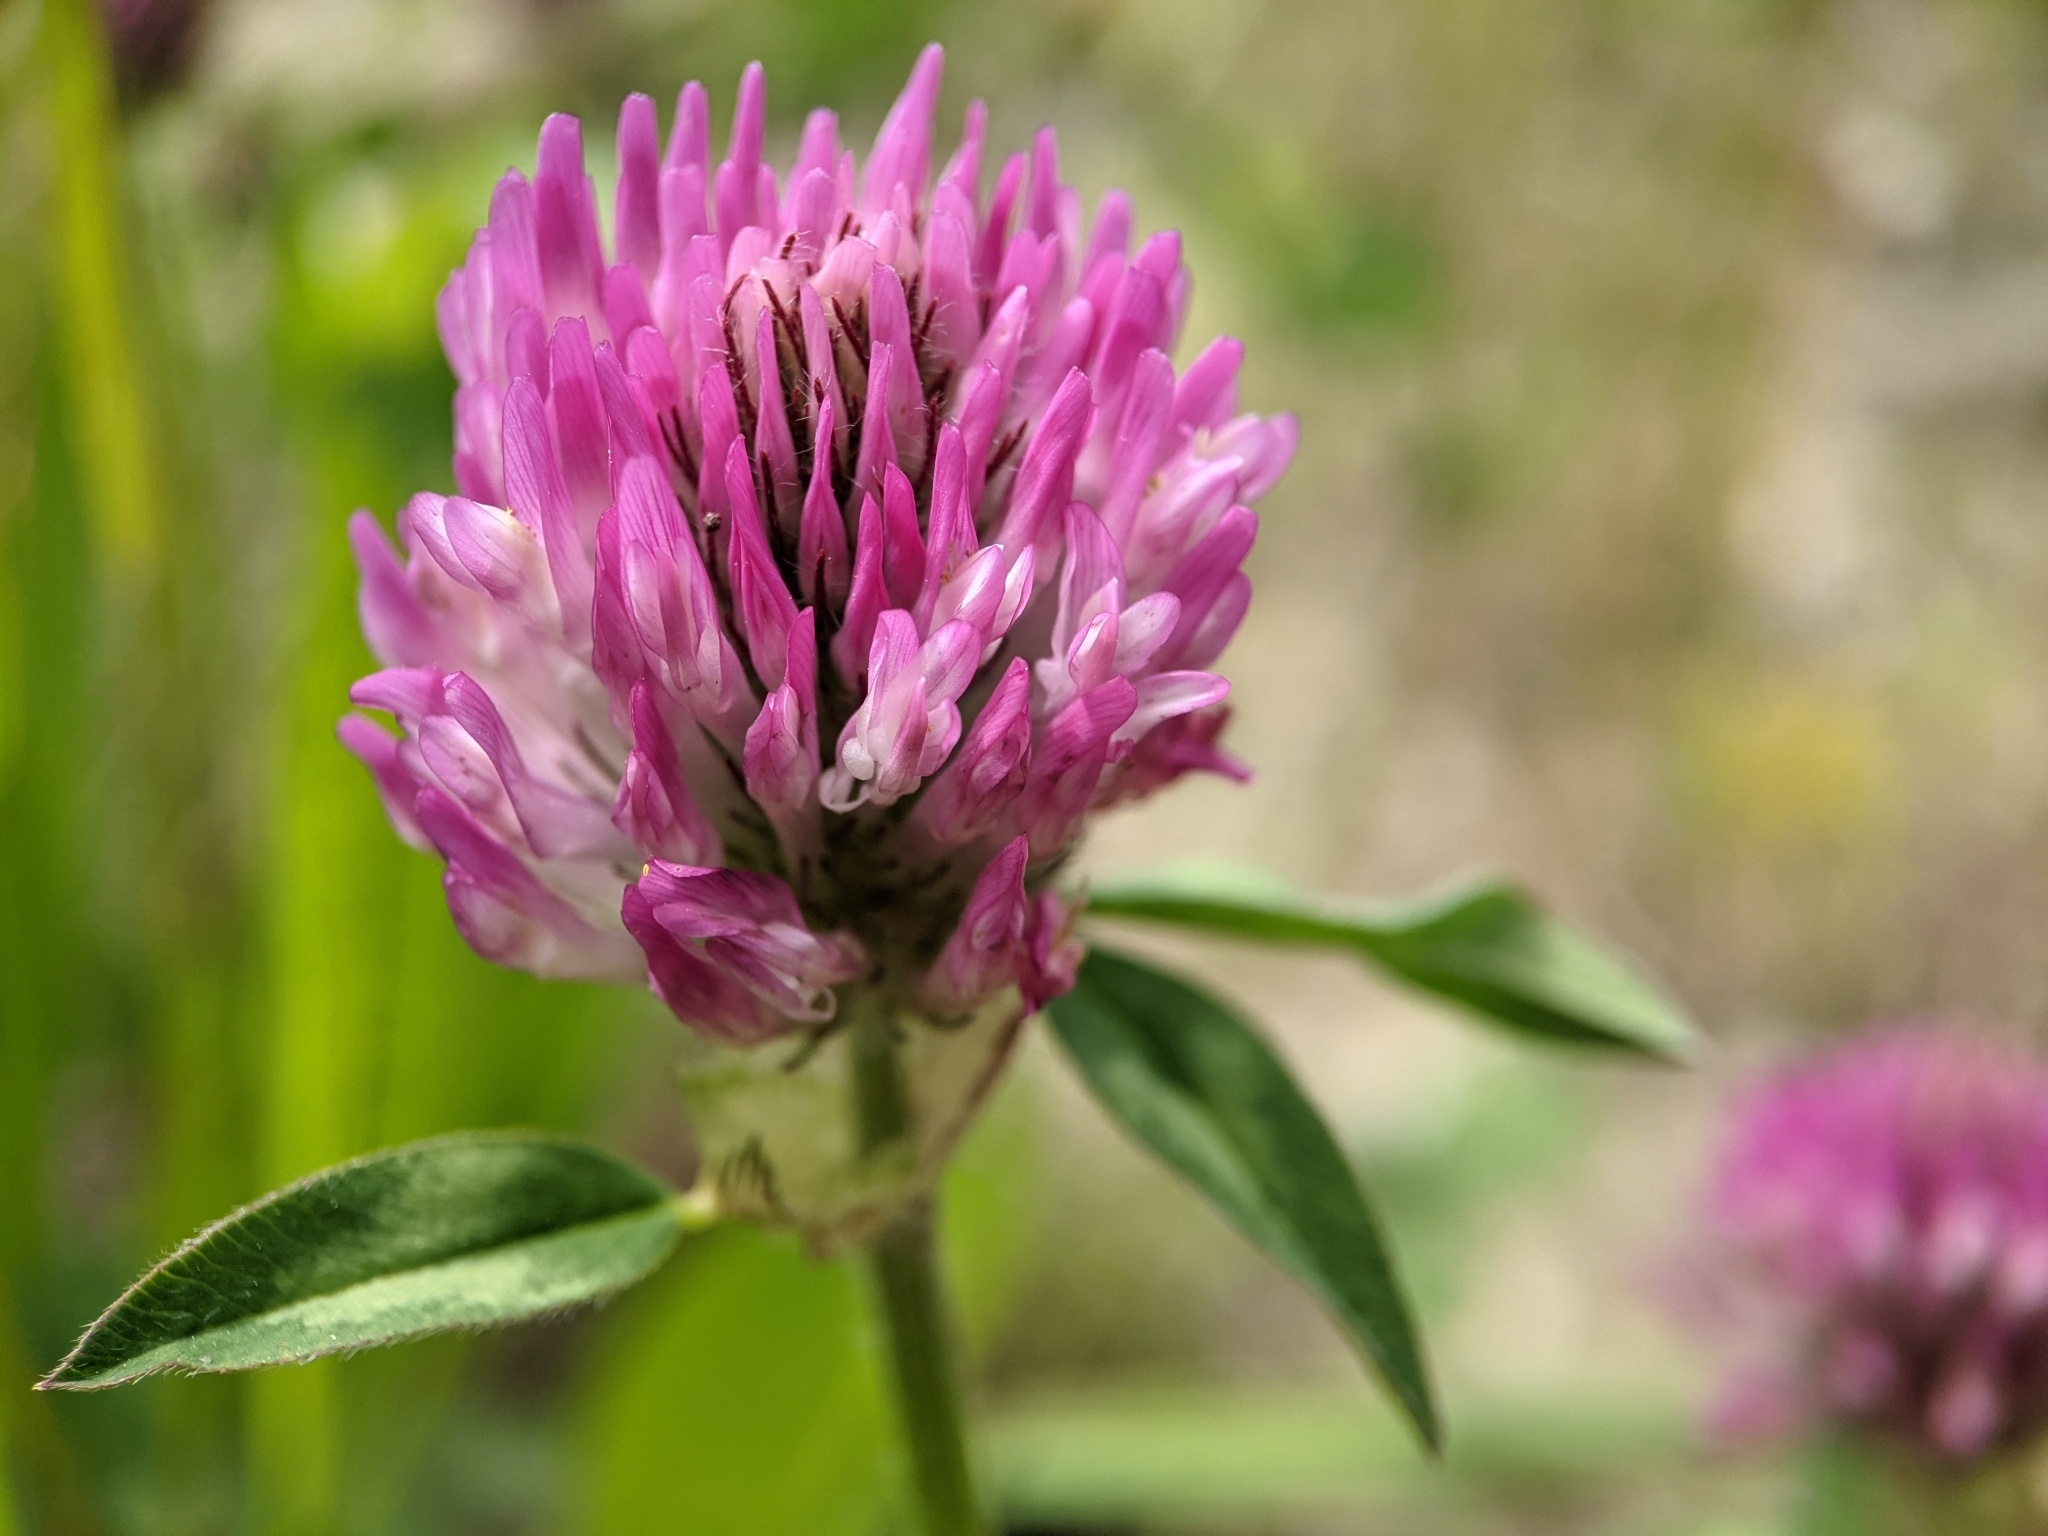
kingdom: Plantae
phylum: Tracheophyta
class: Magnoliopsida
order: Fabales
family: Fabaceae
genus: Trifolium
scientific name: Trifolium pratense
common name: Red clover
